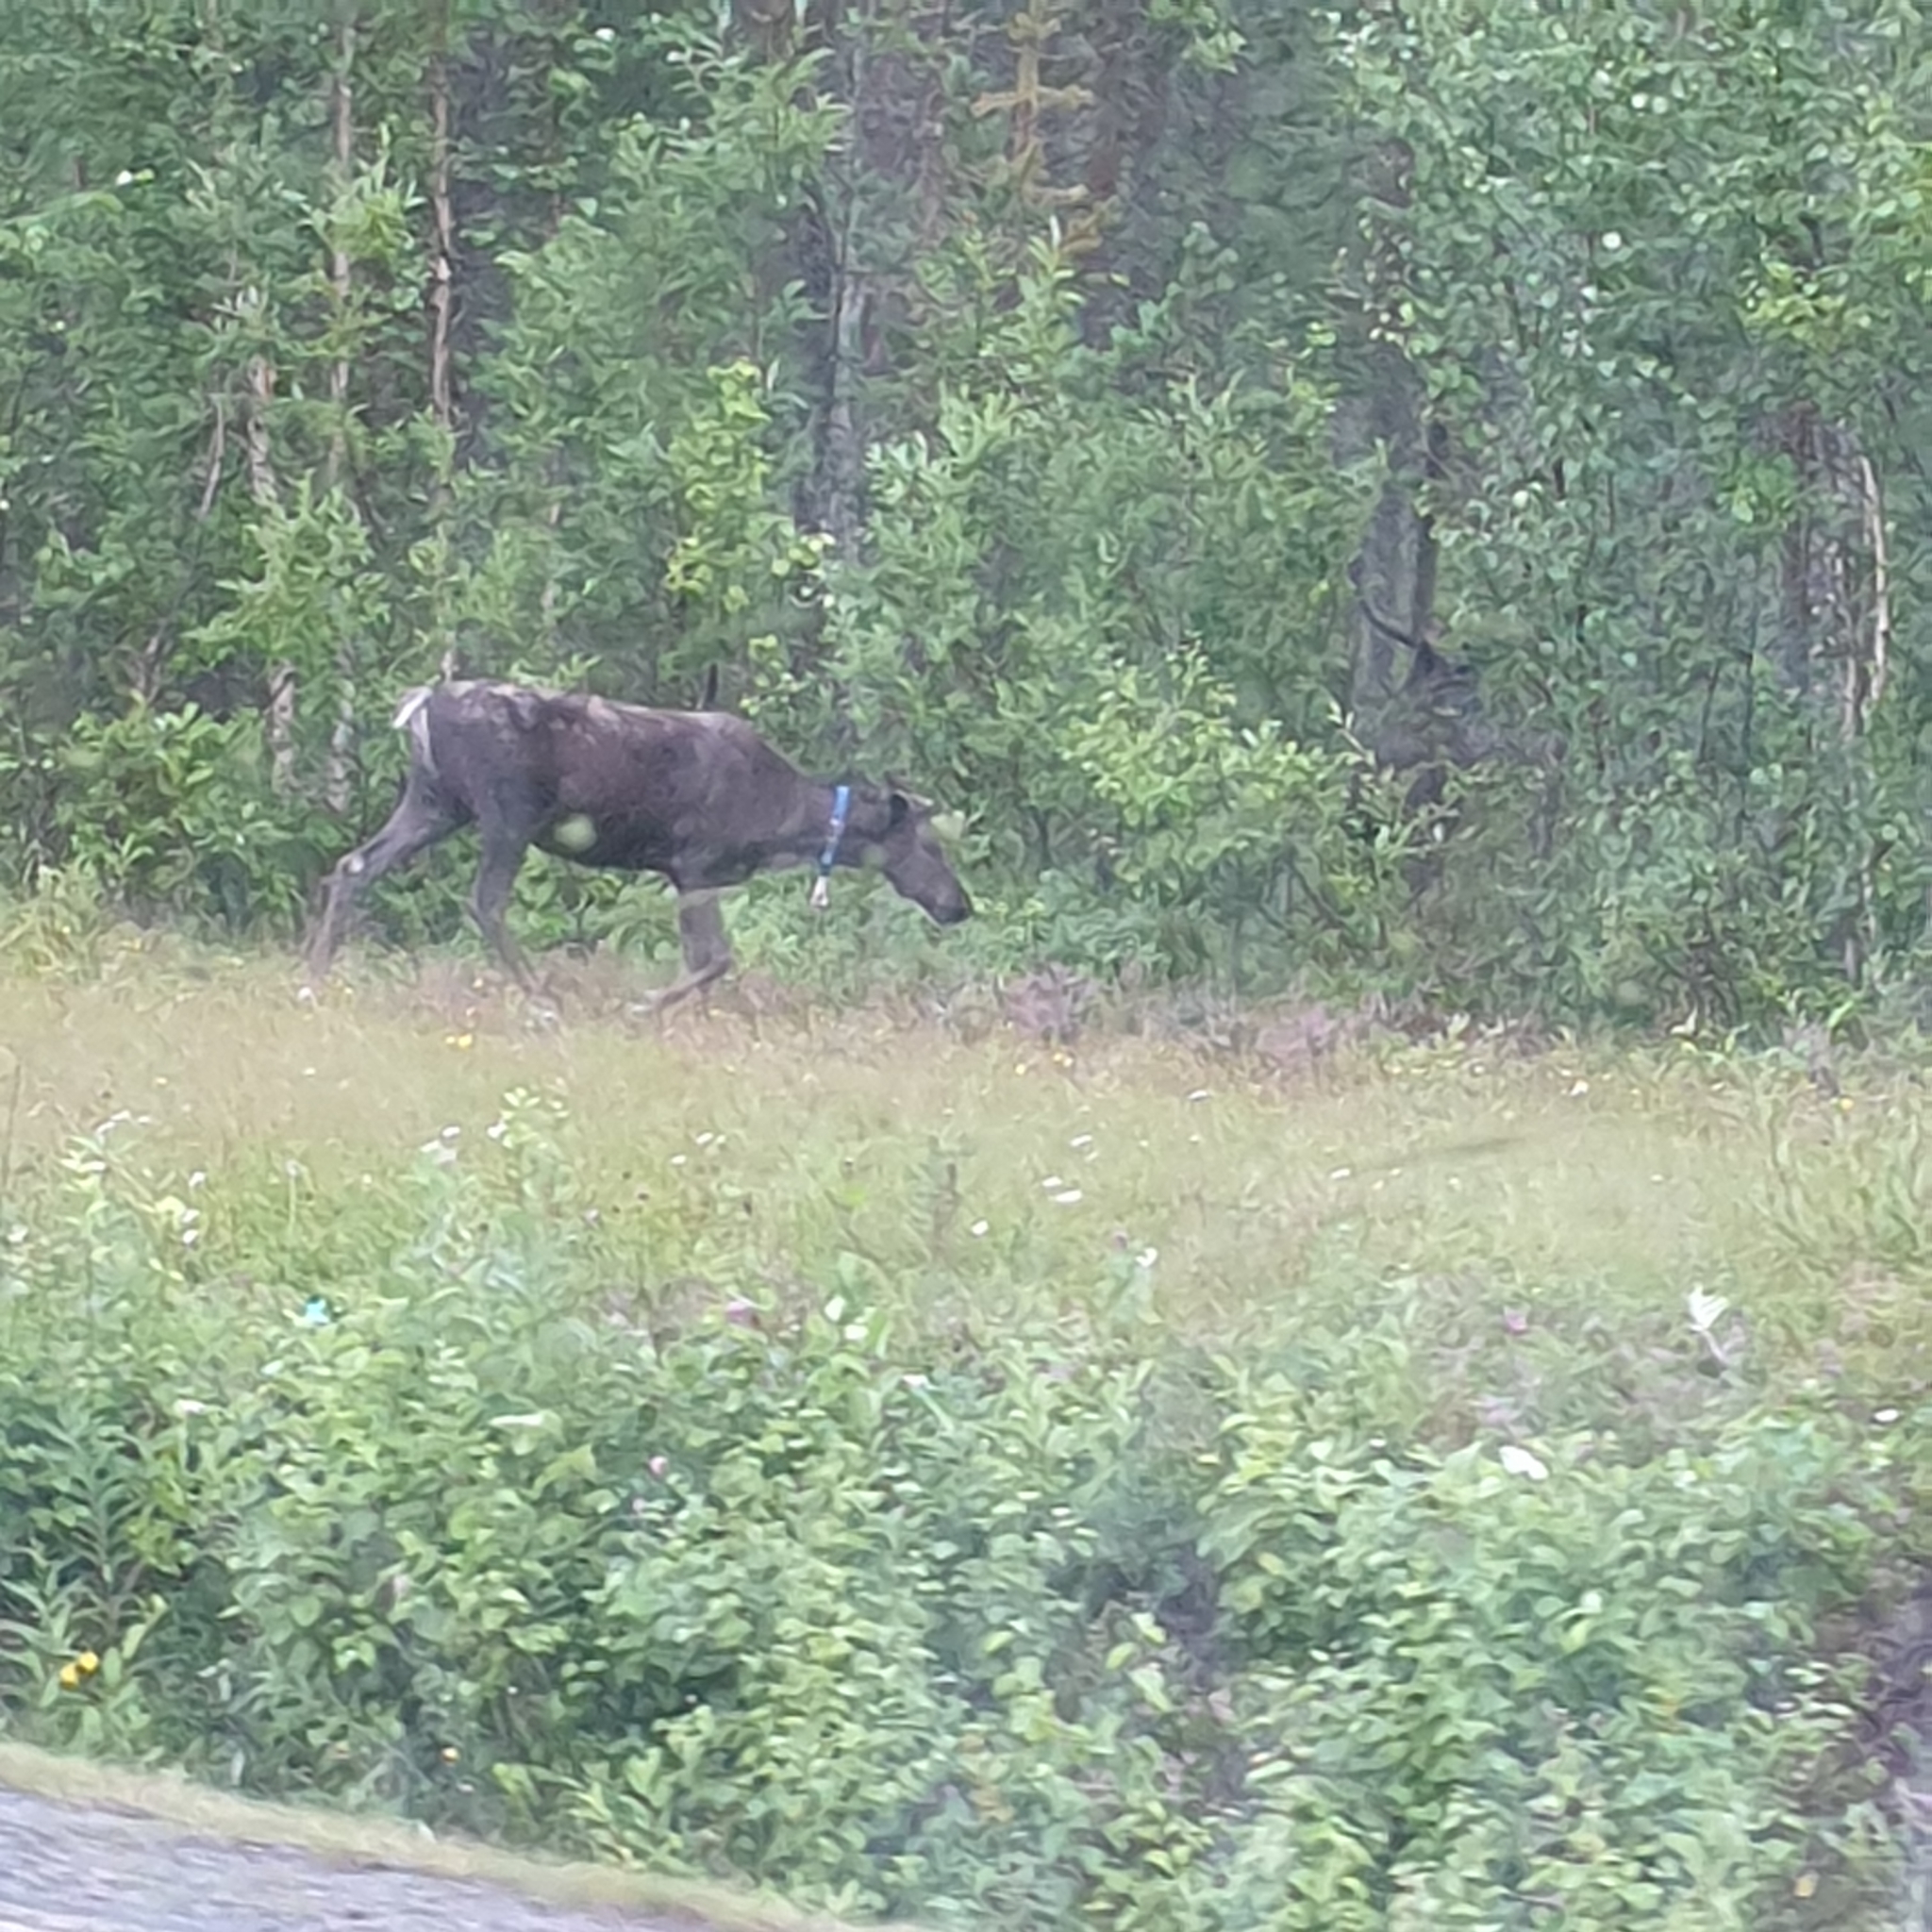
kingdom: Animalia
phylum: Chordata
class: Mammalia
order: Artiodactyla
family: Cervidae
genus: Rangifer
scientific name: Rangifer tarandus
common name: Reindeer
